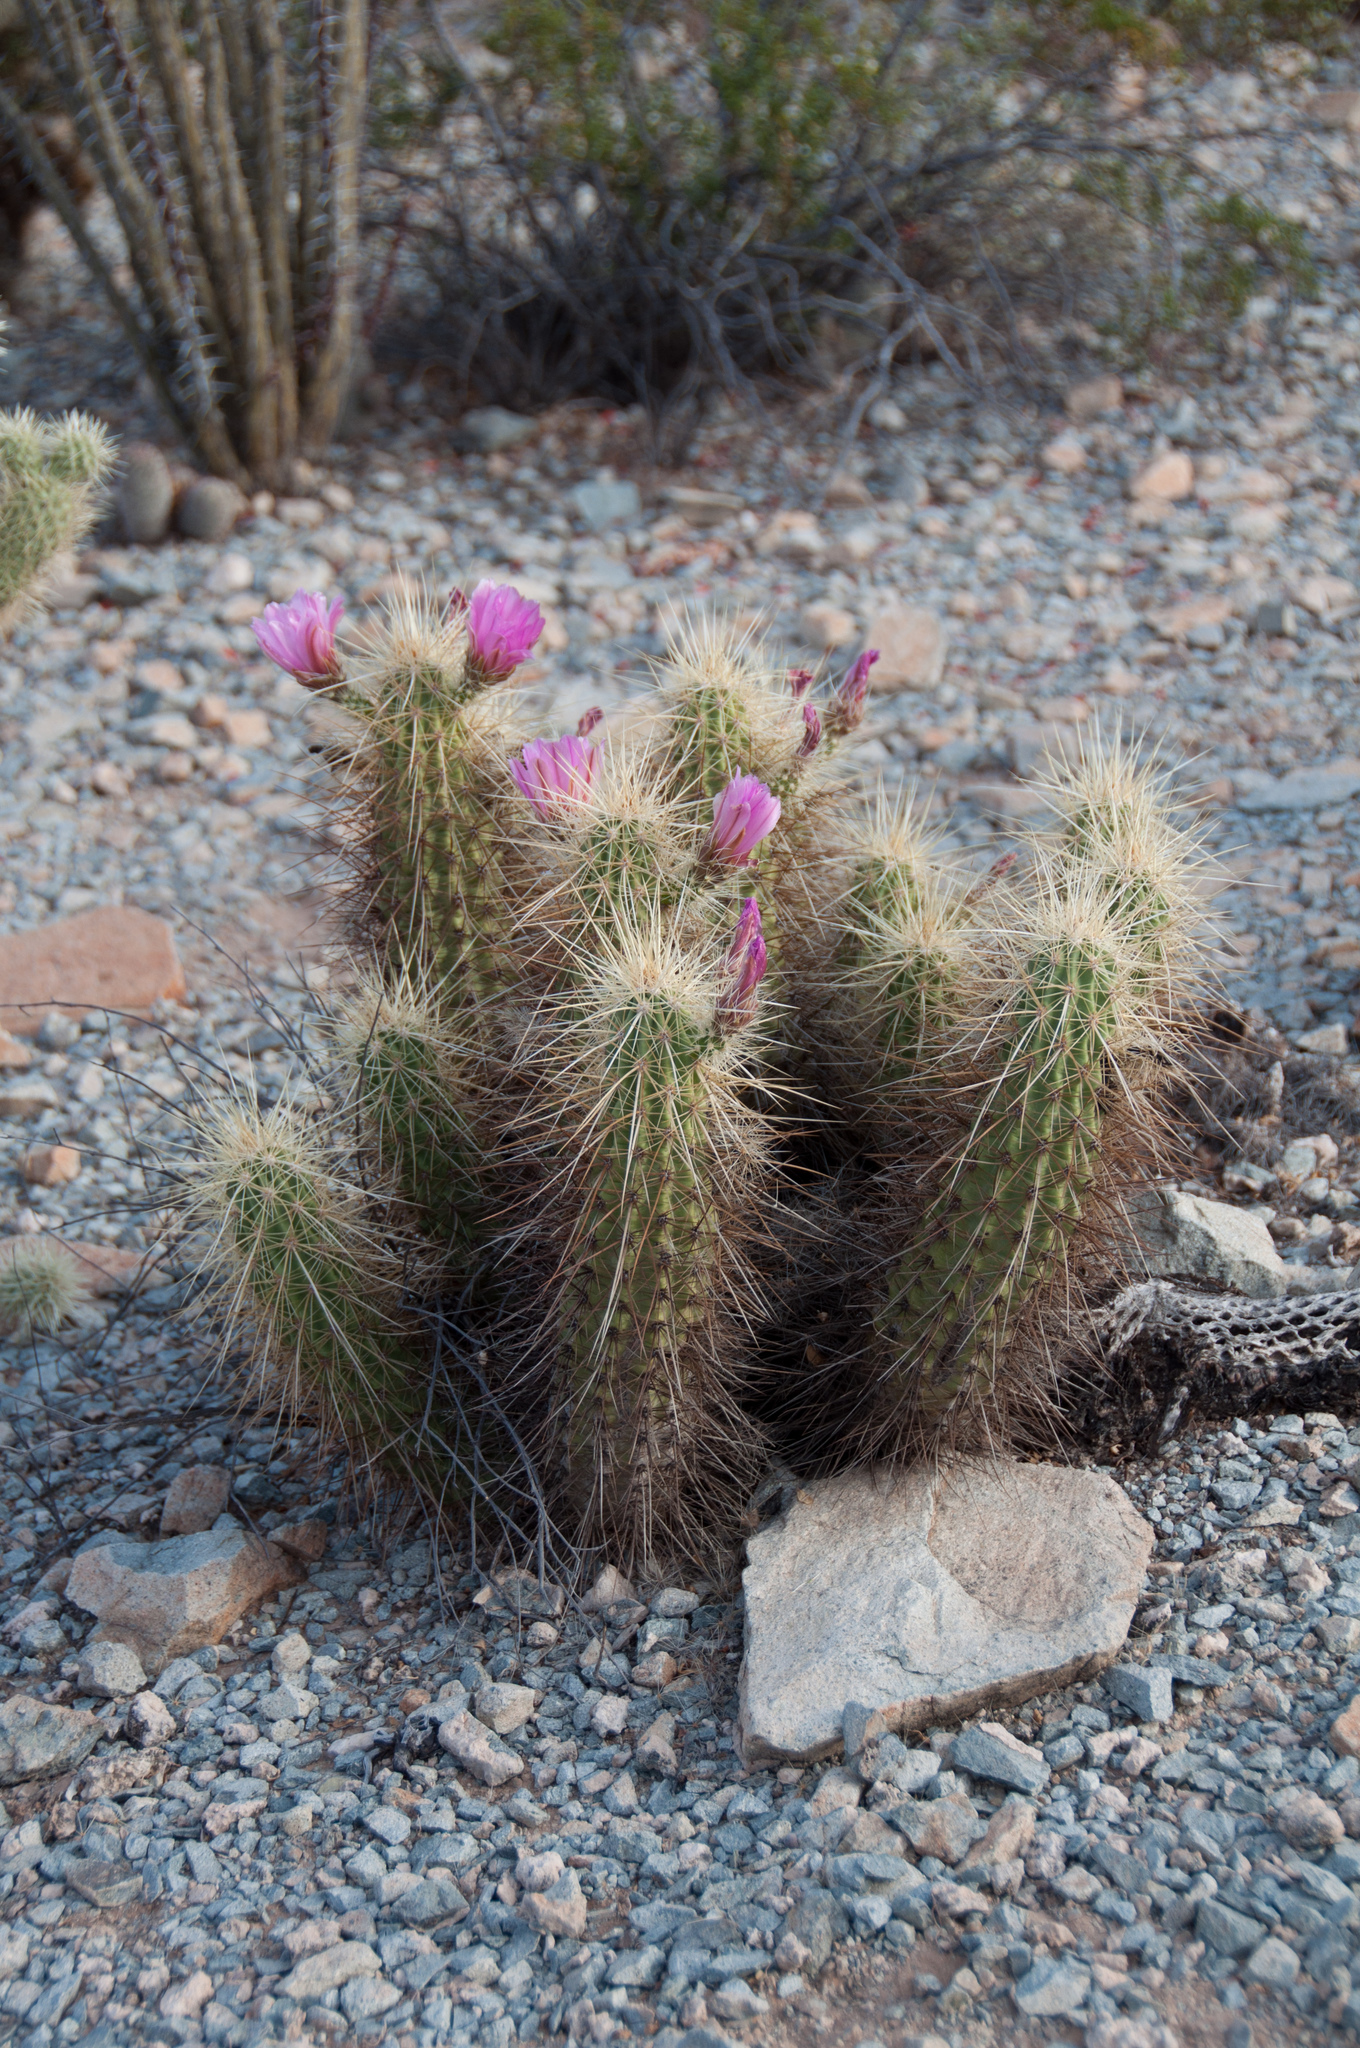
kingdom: Plantae
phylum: Tracheophyta
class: Magnoliopsida
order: Caryophyllales
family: Cactaceae
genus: Echinocereus
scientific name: Echinocereus nicholii
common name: Nichol's hedgehog cactus
